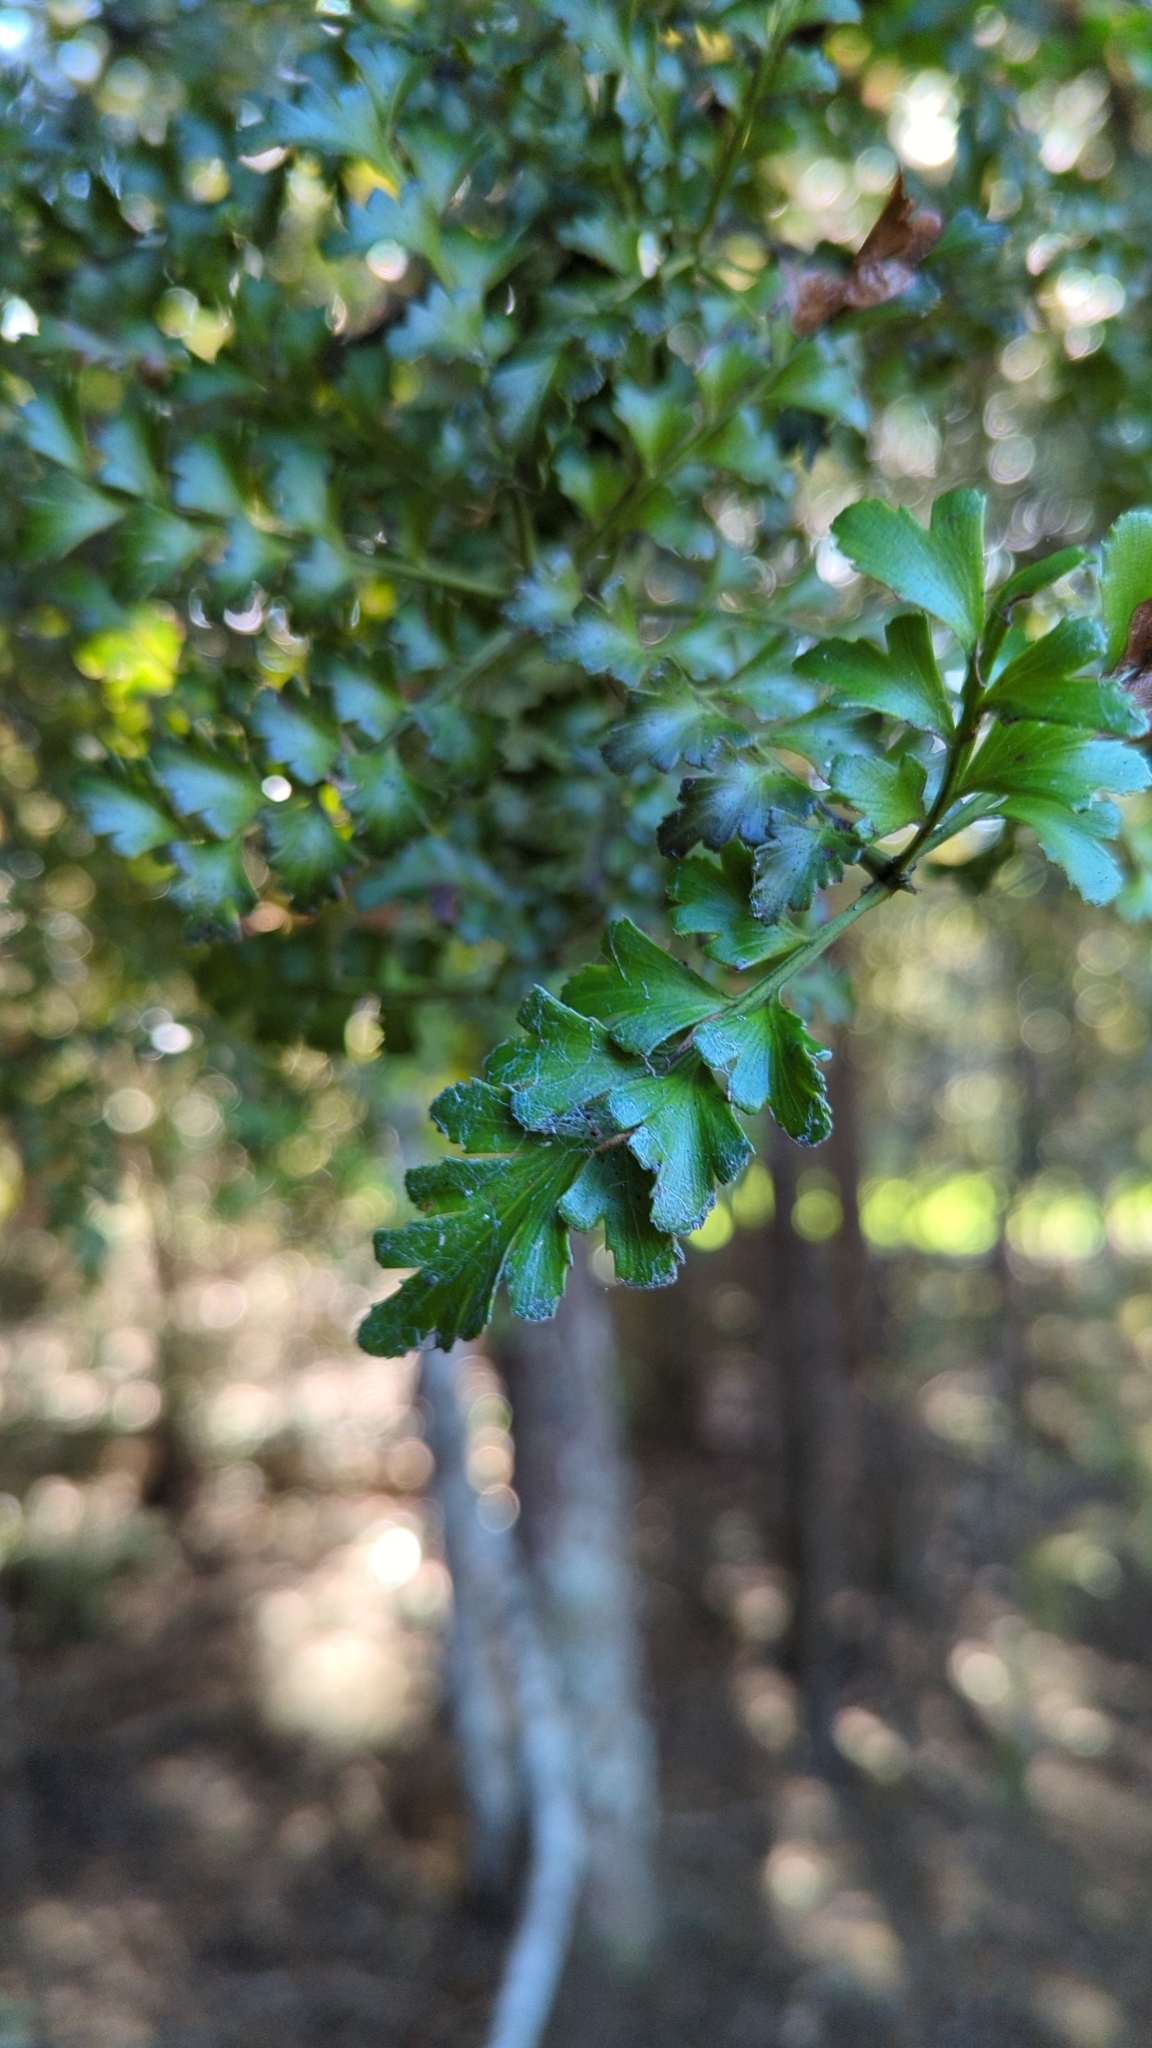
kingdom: Plantae
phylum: Tracheophyta
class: Pinopsida
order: Pinales
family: Phyllocladaceae
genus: Phyllocladus
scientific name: Phyllocladus trichomanoides
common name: Celery pine
